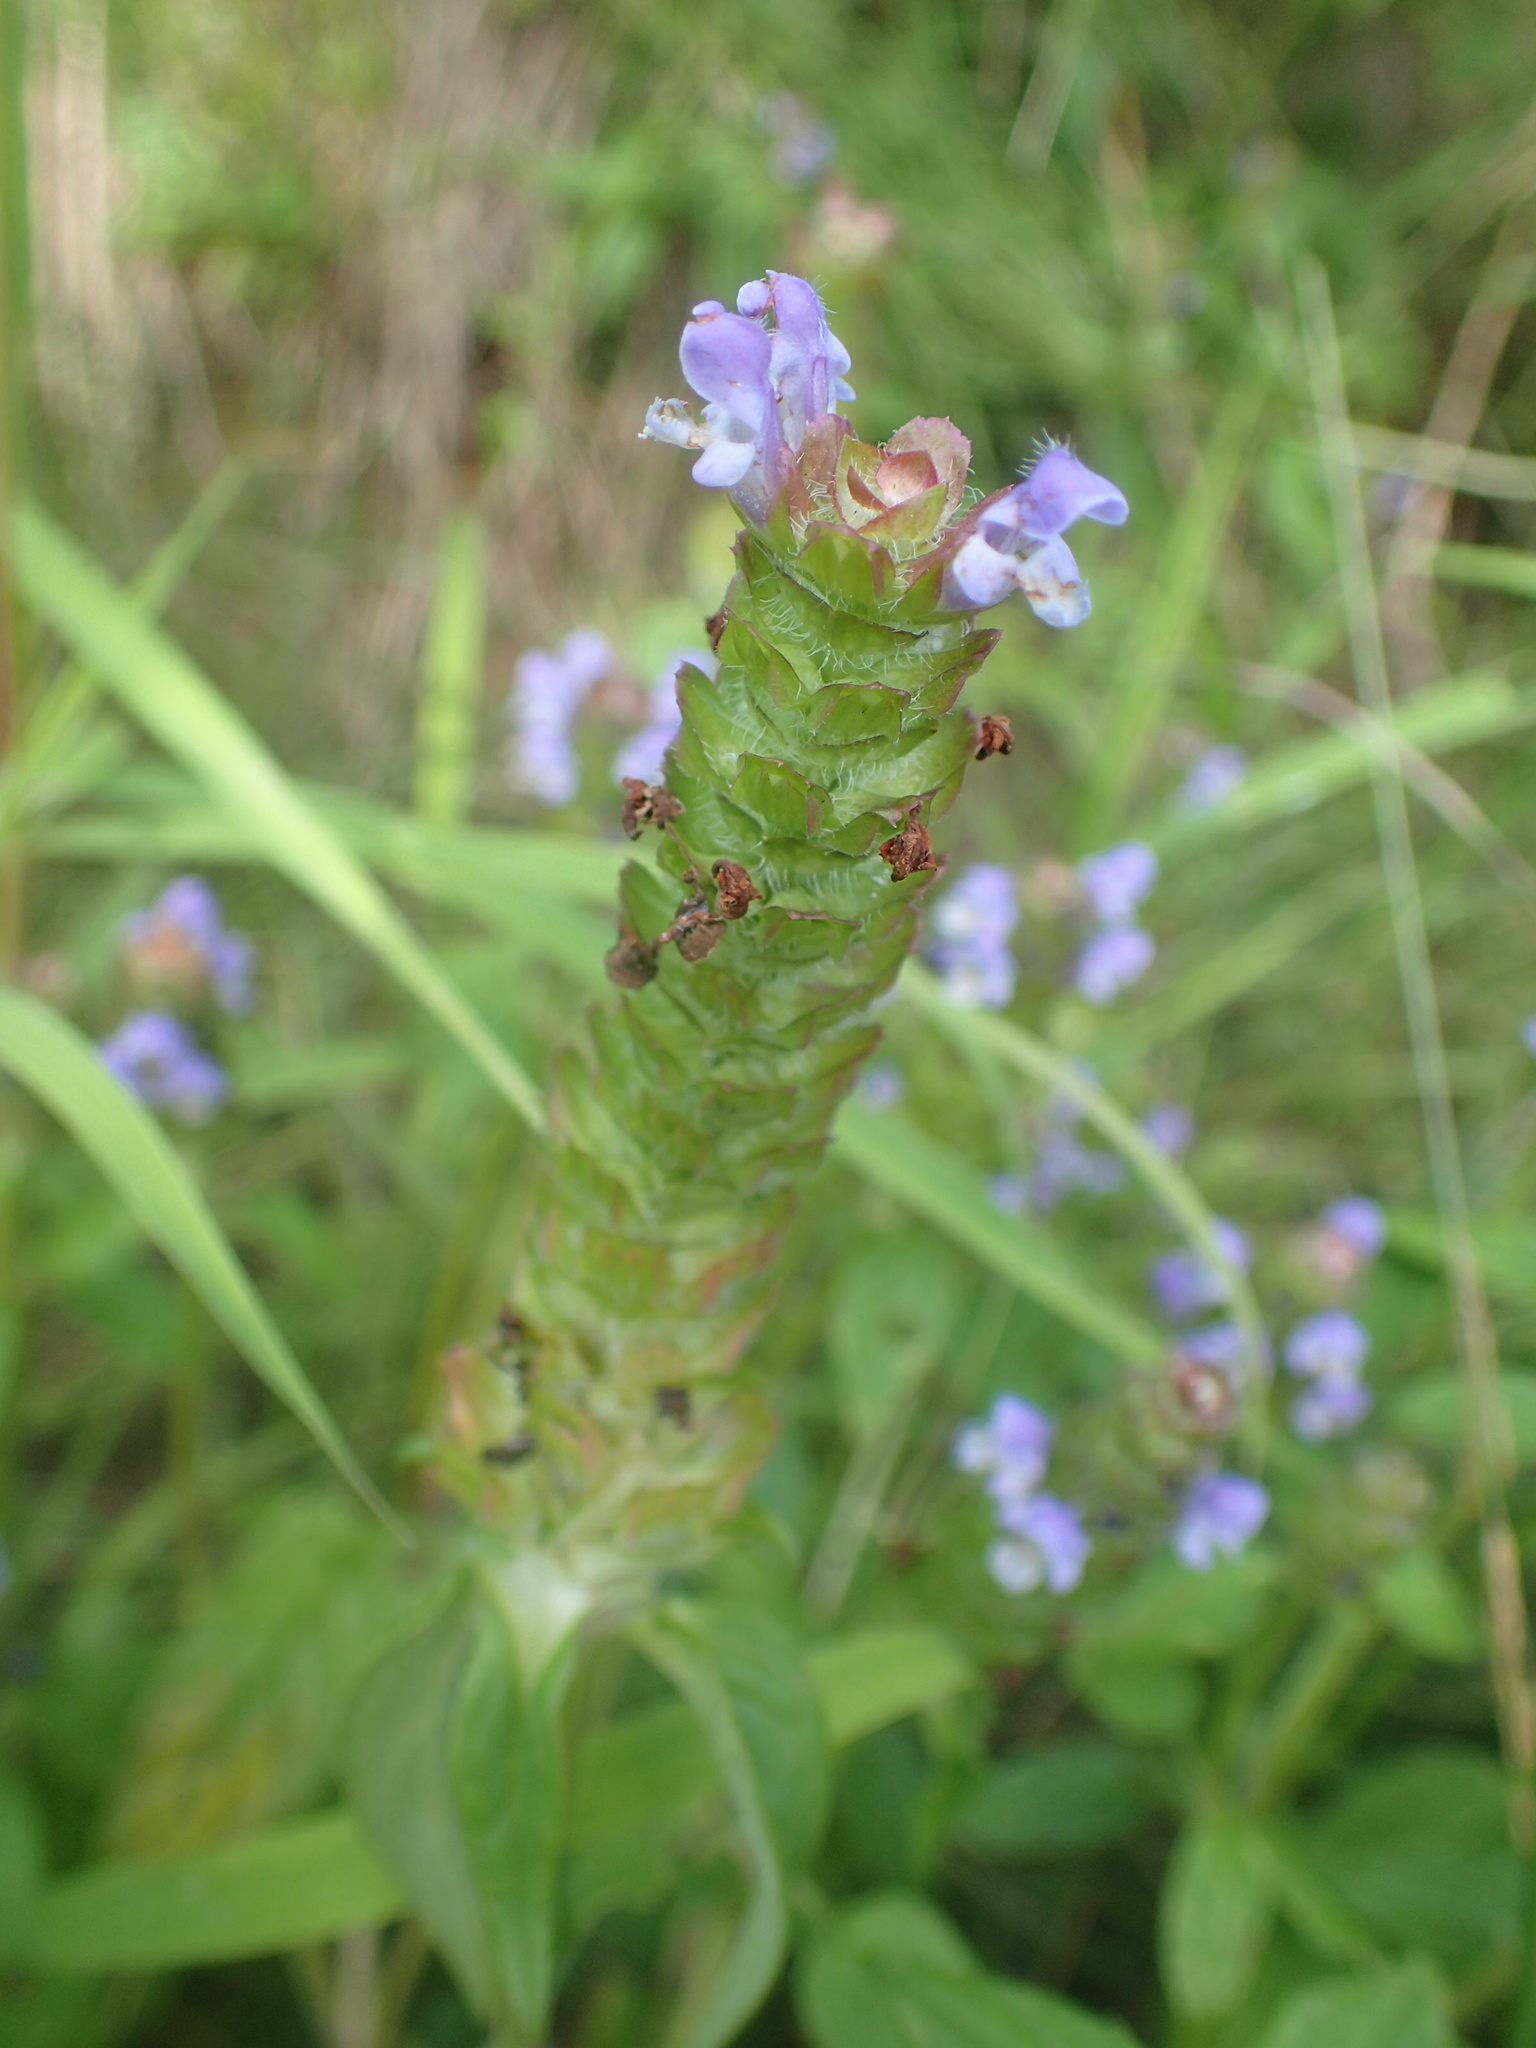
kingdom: Plantae
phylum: Tracheophyta
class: Magnoliopsida
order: Lamiales
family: Lamiaceae
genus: Prunella
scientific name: Prunella vulgaris
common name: Heal-all
